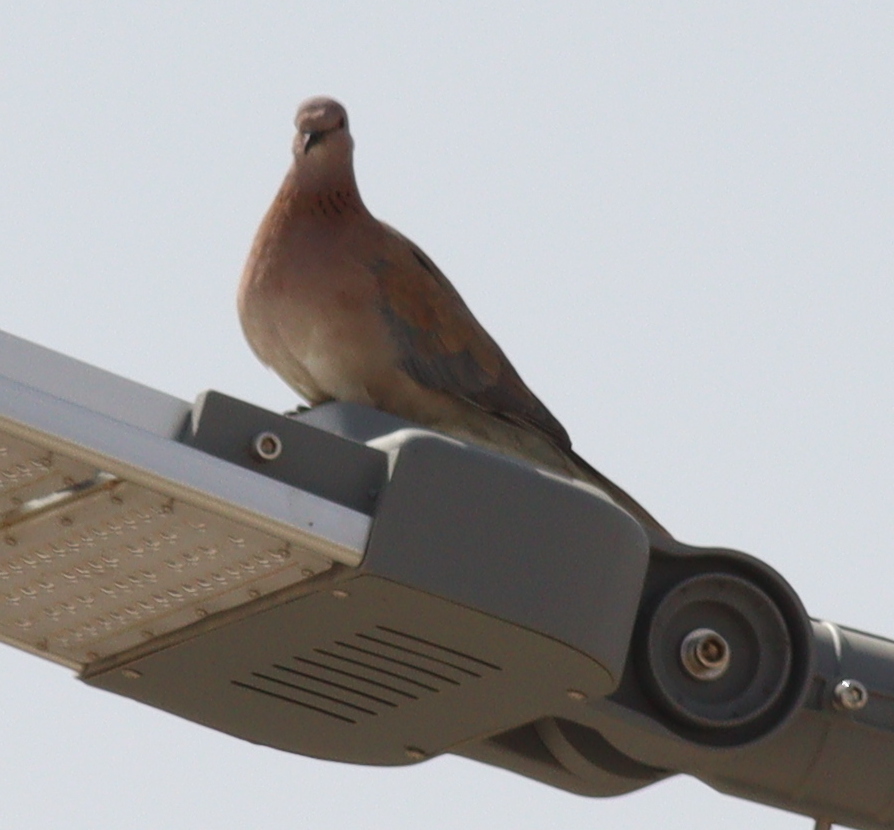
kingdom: Animalia
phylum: Chordata
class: Aves
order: Columbiformes
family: Columbidae
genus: Spilopelia
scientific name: Spilopelia senegalensis
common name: Laughing dove
